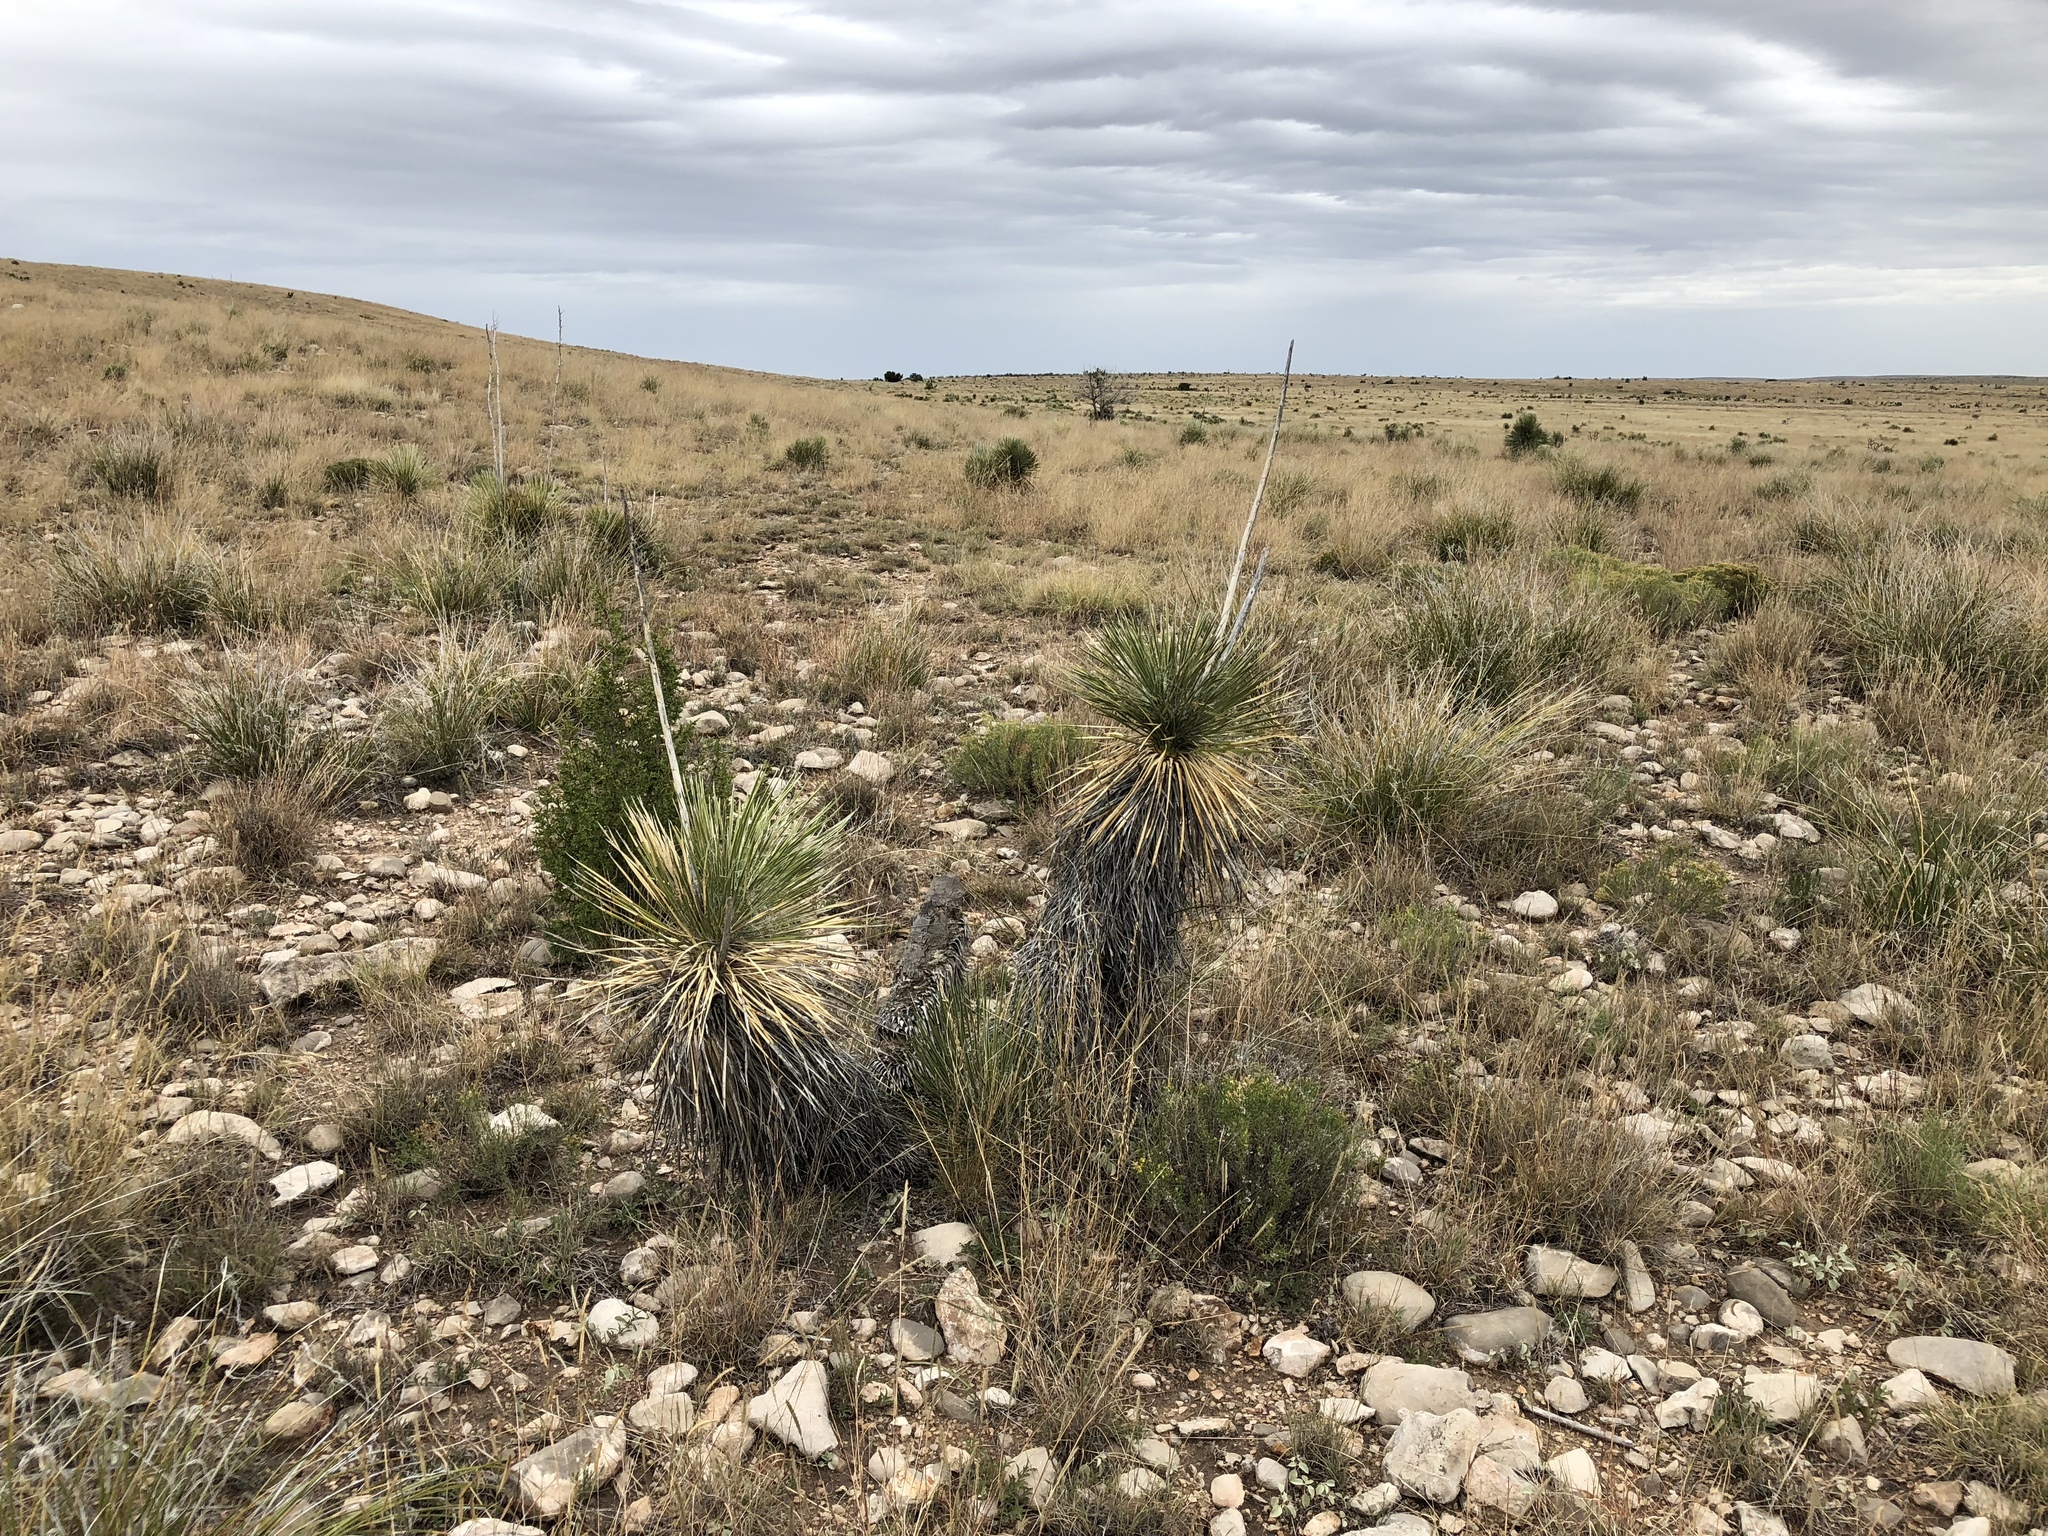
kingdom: Plantae
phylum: Tracheophyta
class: Liliopsida
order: Asparagales
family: Asparagaceae
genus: Yucca
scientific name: Yucca elata
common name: Palmella
